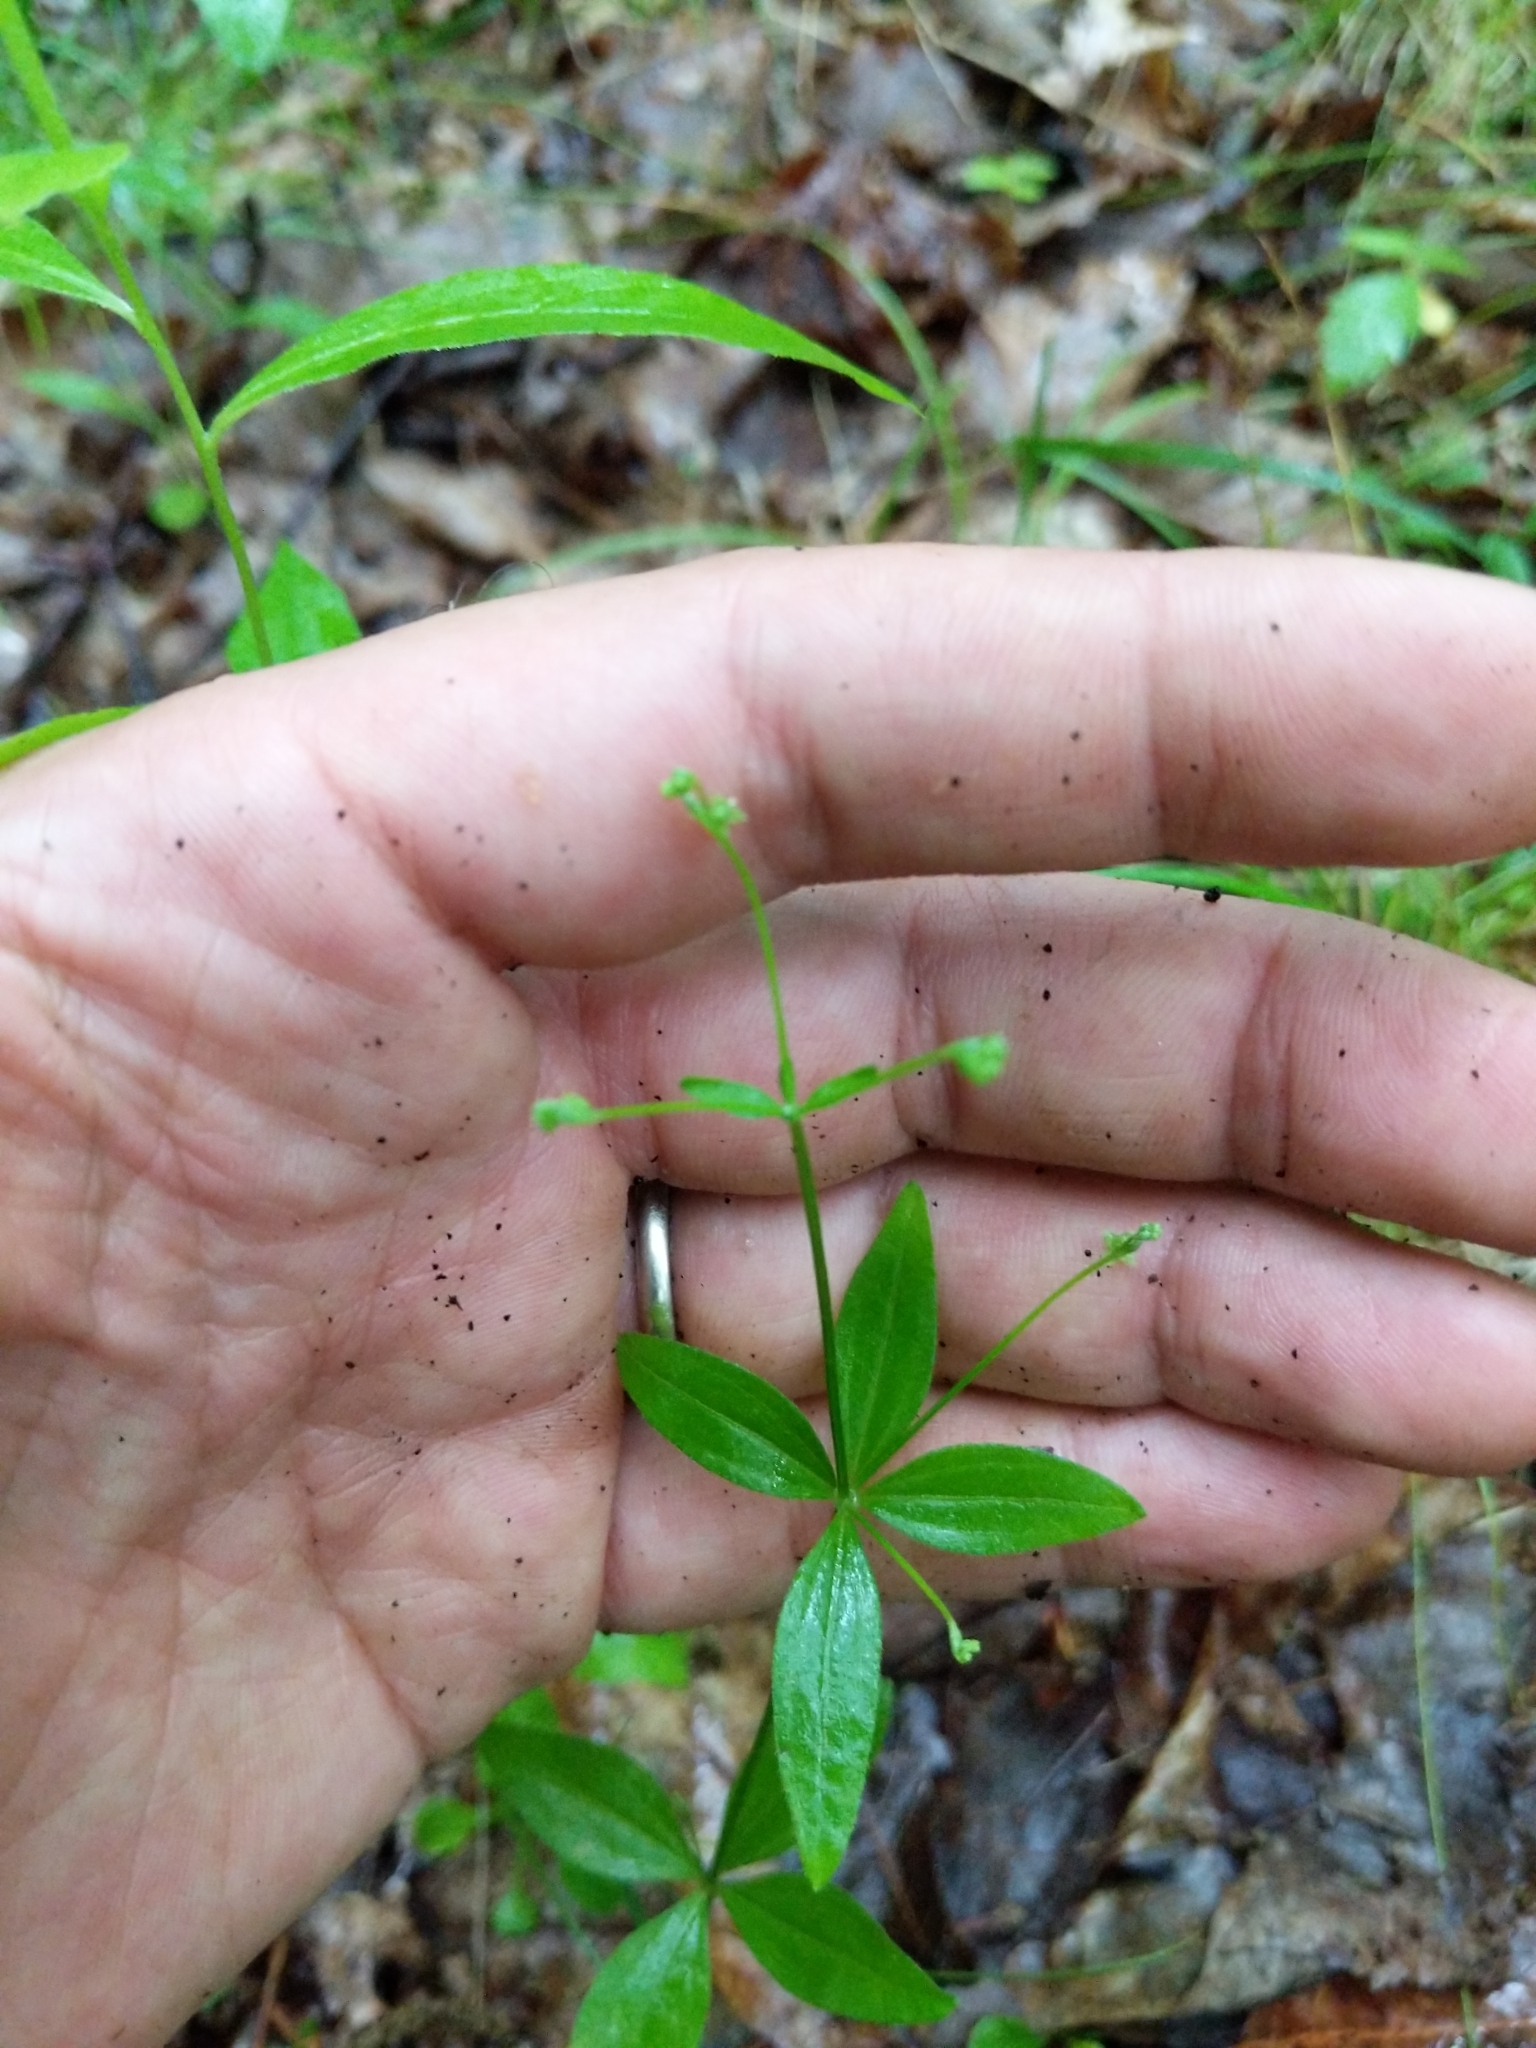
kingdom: Plantae
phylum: Tracheophyta
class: Magnoliopsida
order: Gentianales
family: Rubiaceae
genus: Galium
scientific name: Galium circaezans
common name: Forest bedstraw
